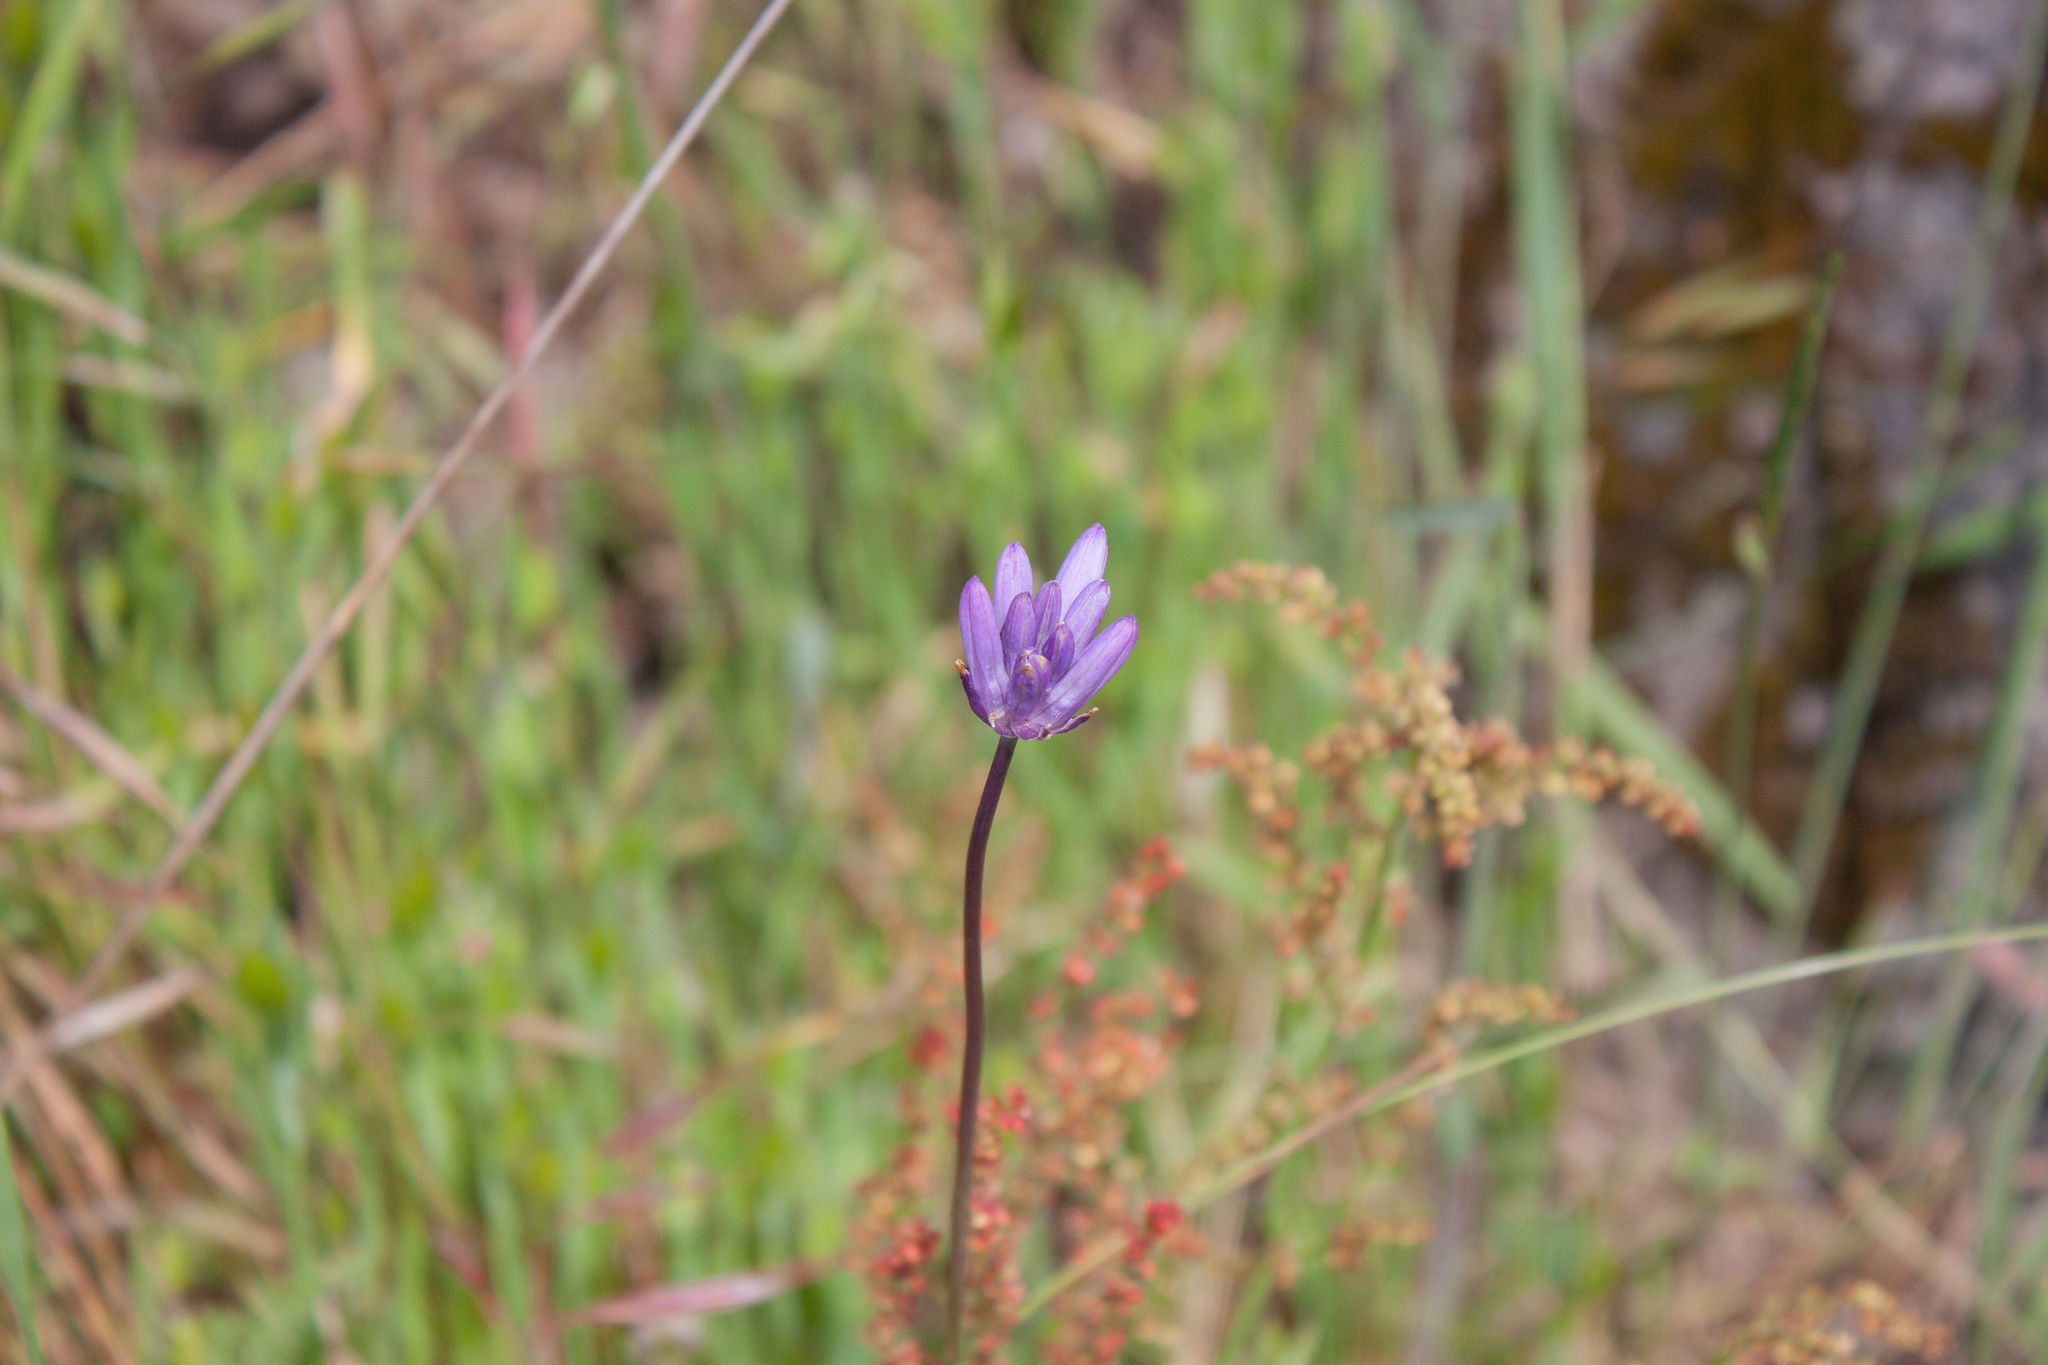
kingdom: Plantae
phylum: Tracheophyta
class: Liliopsida
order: Asparagales
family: Asparagaceae
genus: Dichelostemma
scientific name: Dichelostemma congestum
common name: Fork-tooth ookow
